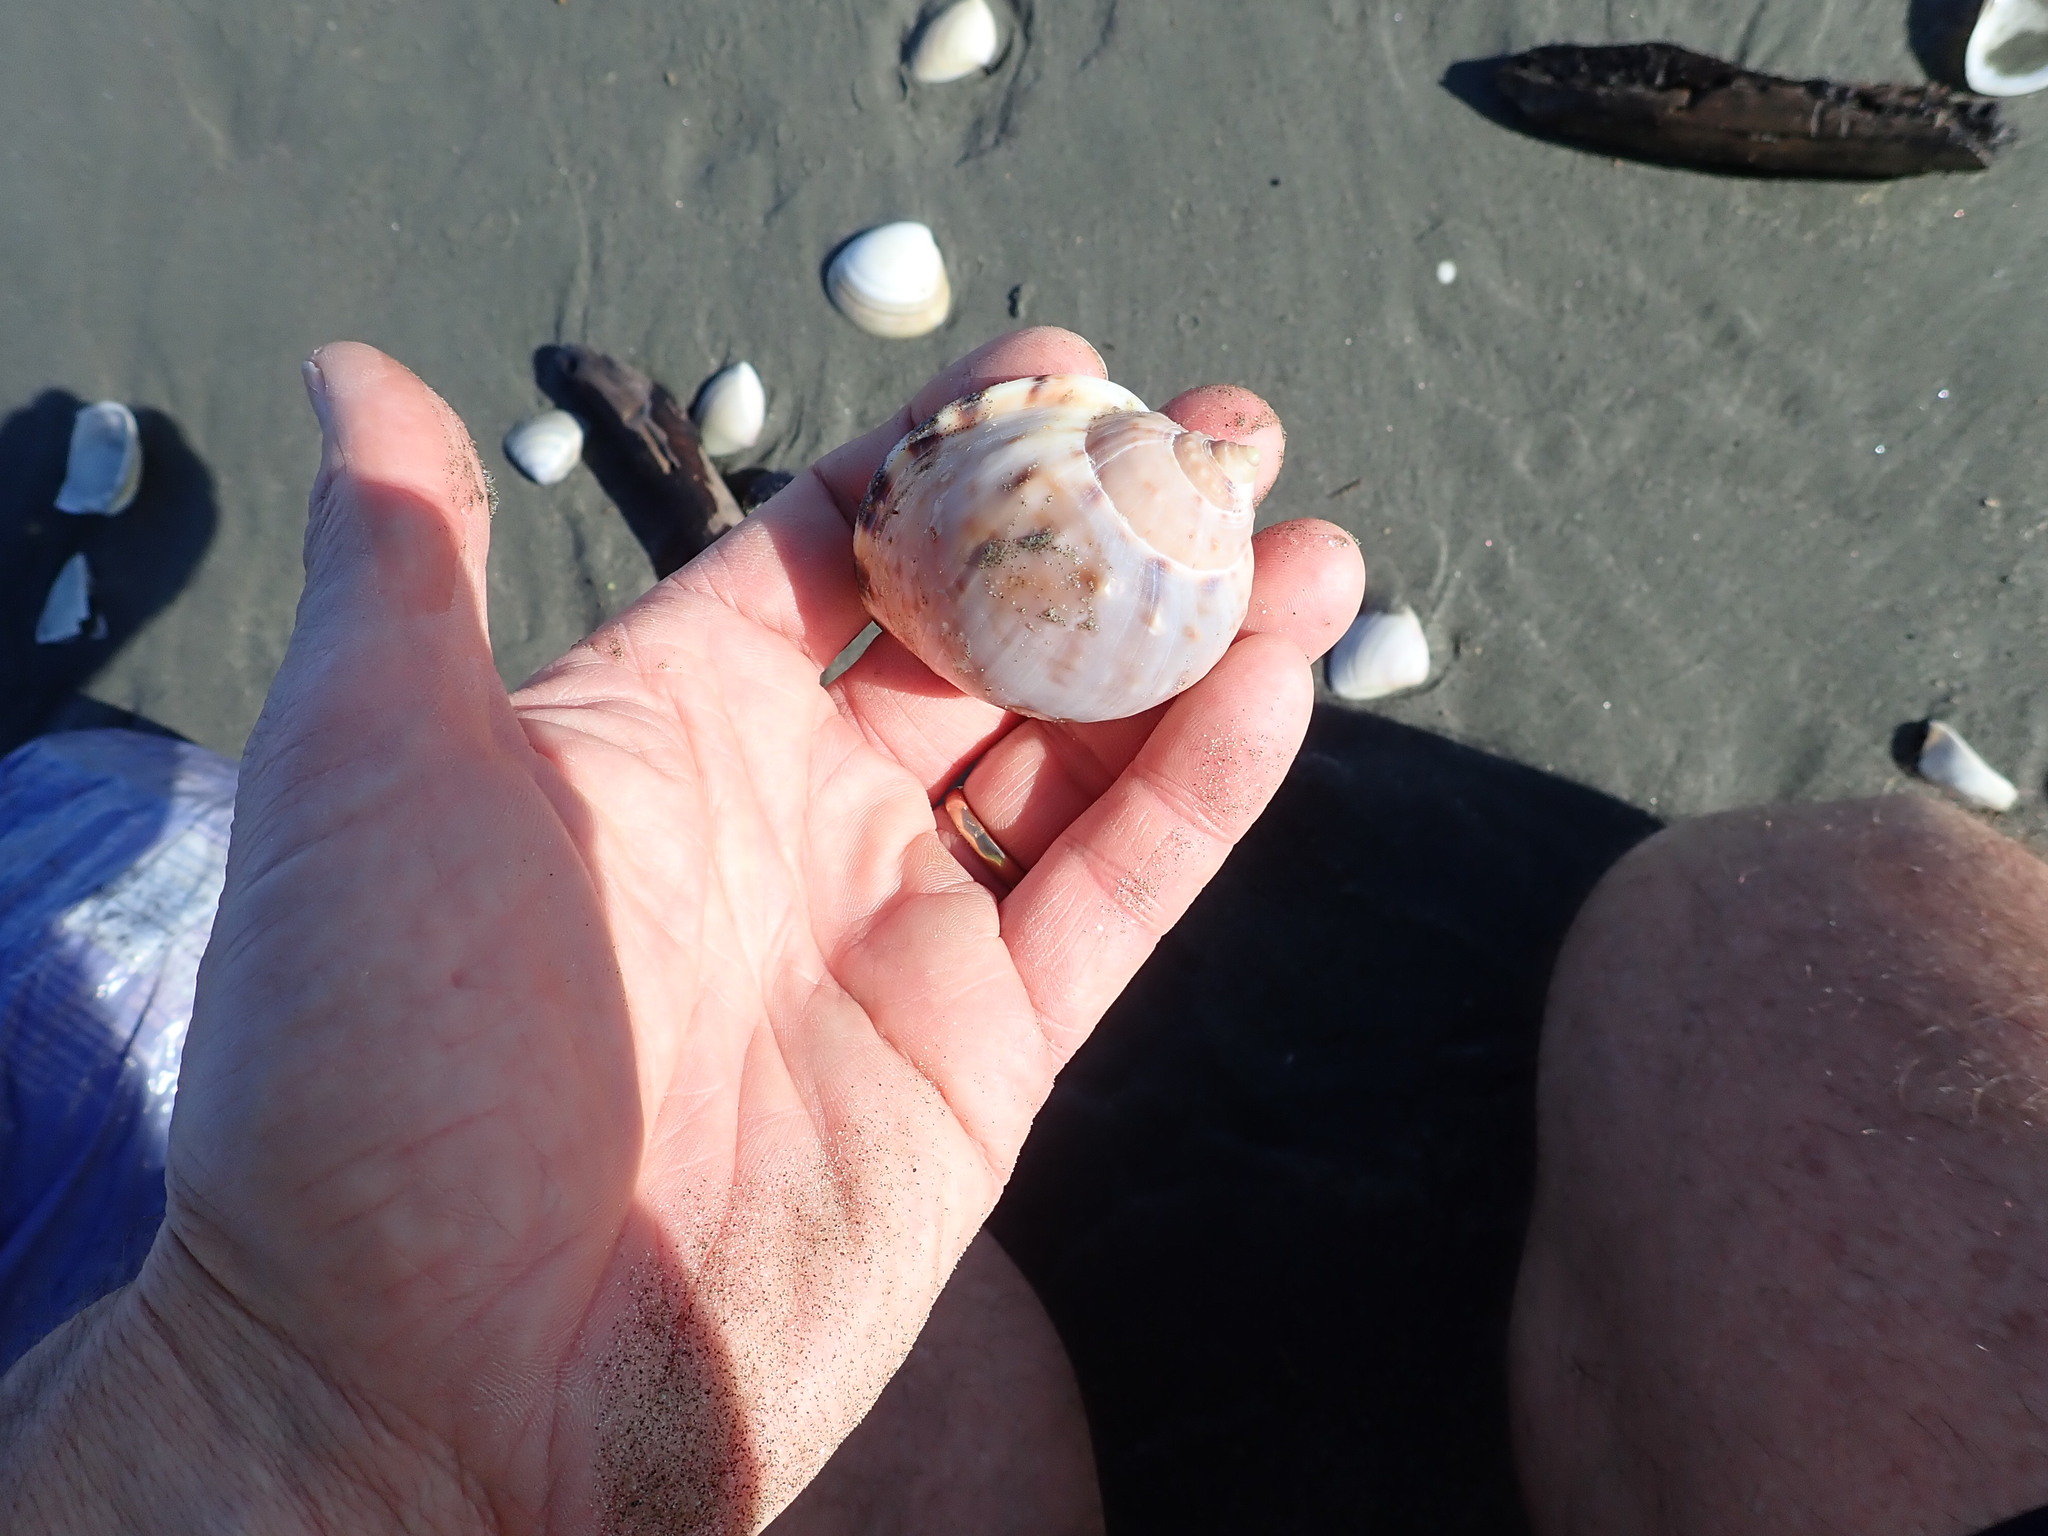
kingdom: Animalia
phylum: Mollusca
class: Gastropoda
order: Littorinimorpha
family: Cassidae
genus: Semicassis
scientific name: Semicassis pyrum
